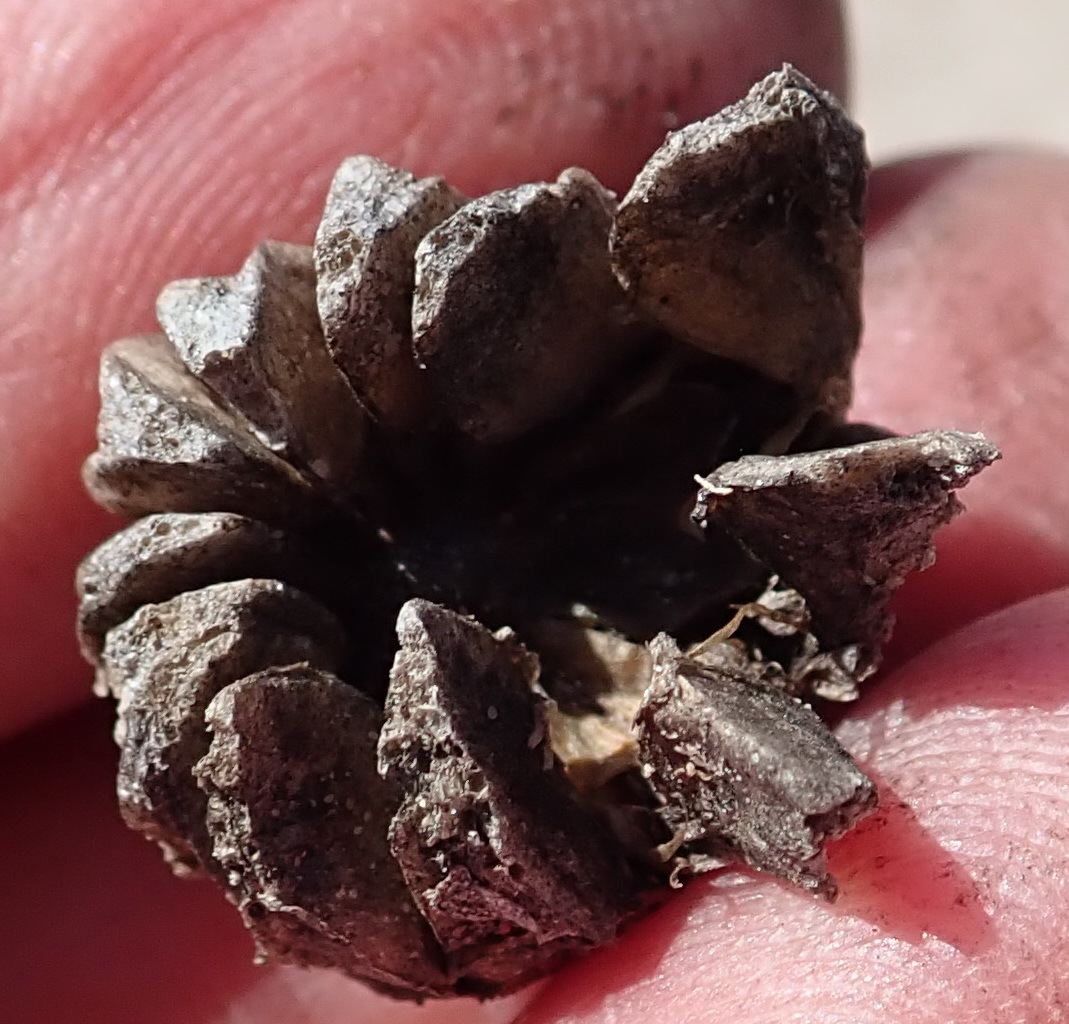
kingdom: Plantae
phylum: Tracheophyta
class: Magnoliopsida
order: Caryophyllales
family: Aizoaceae
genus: Glottiphyllum
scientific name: Glottiphyllum depressum
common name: Fig-marigold
